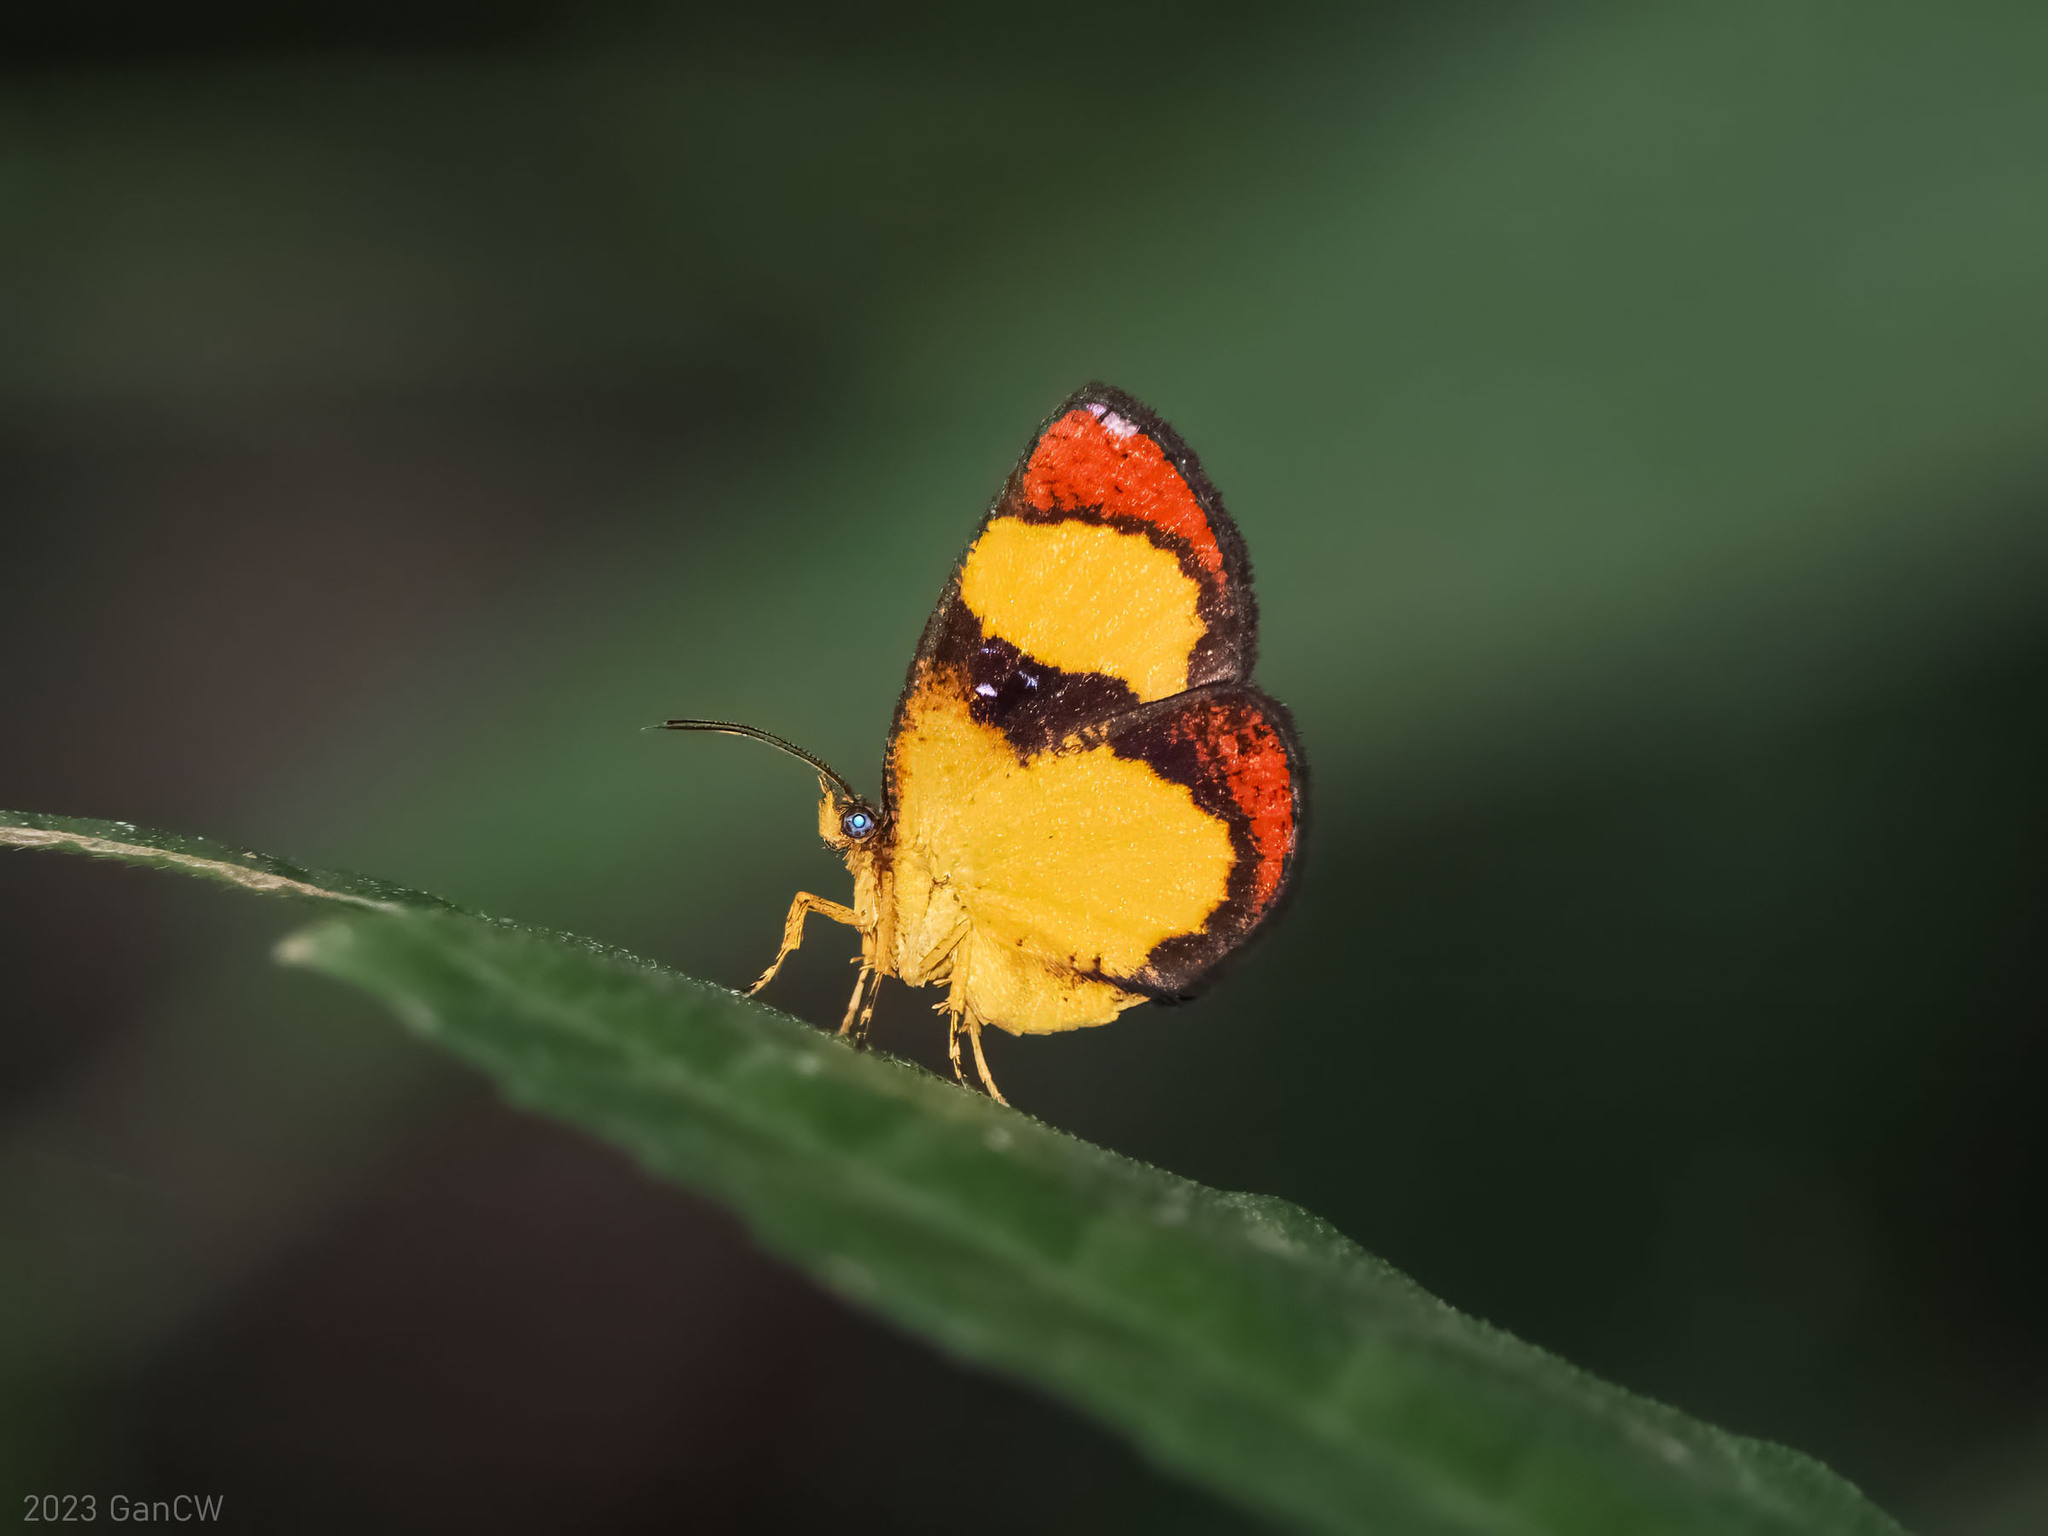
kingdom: Animalia
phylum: Arthropoda
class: Insecta
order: Lepidoptera
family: Callidulidae
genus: Callidula
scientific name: Callidula versicolor
